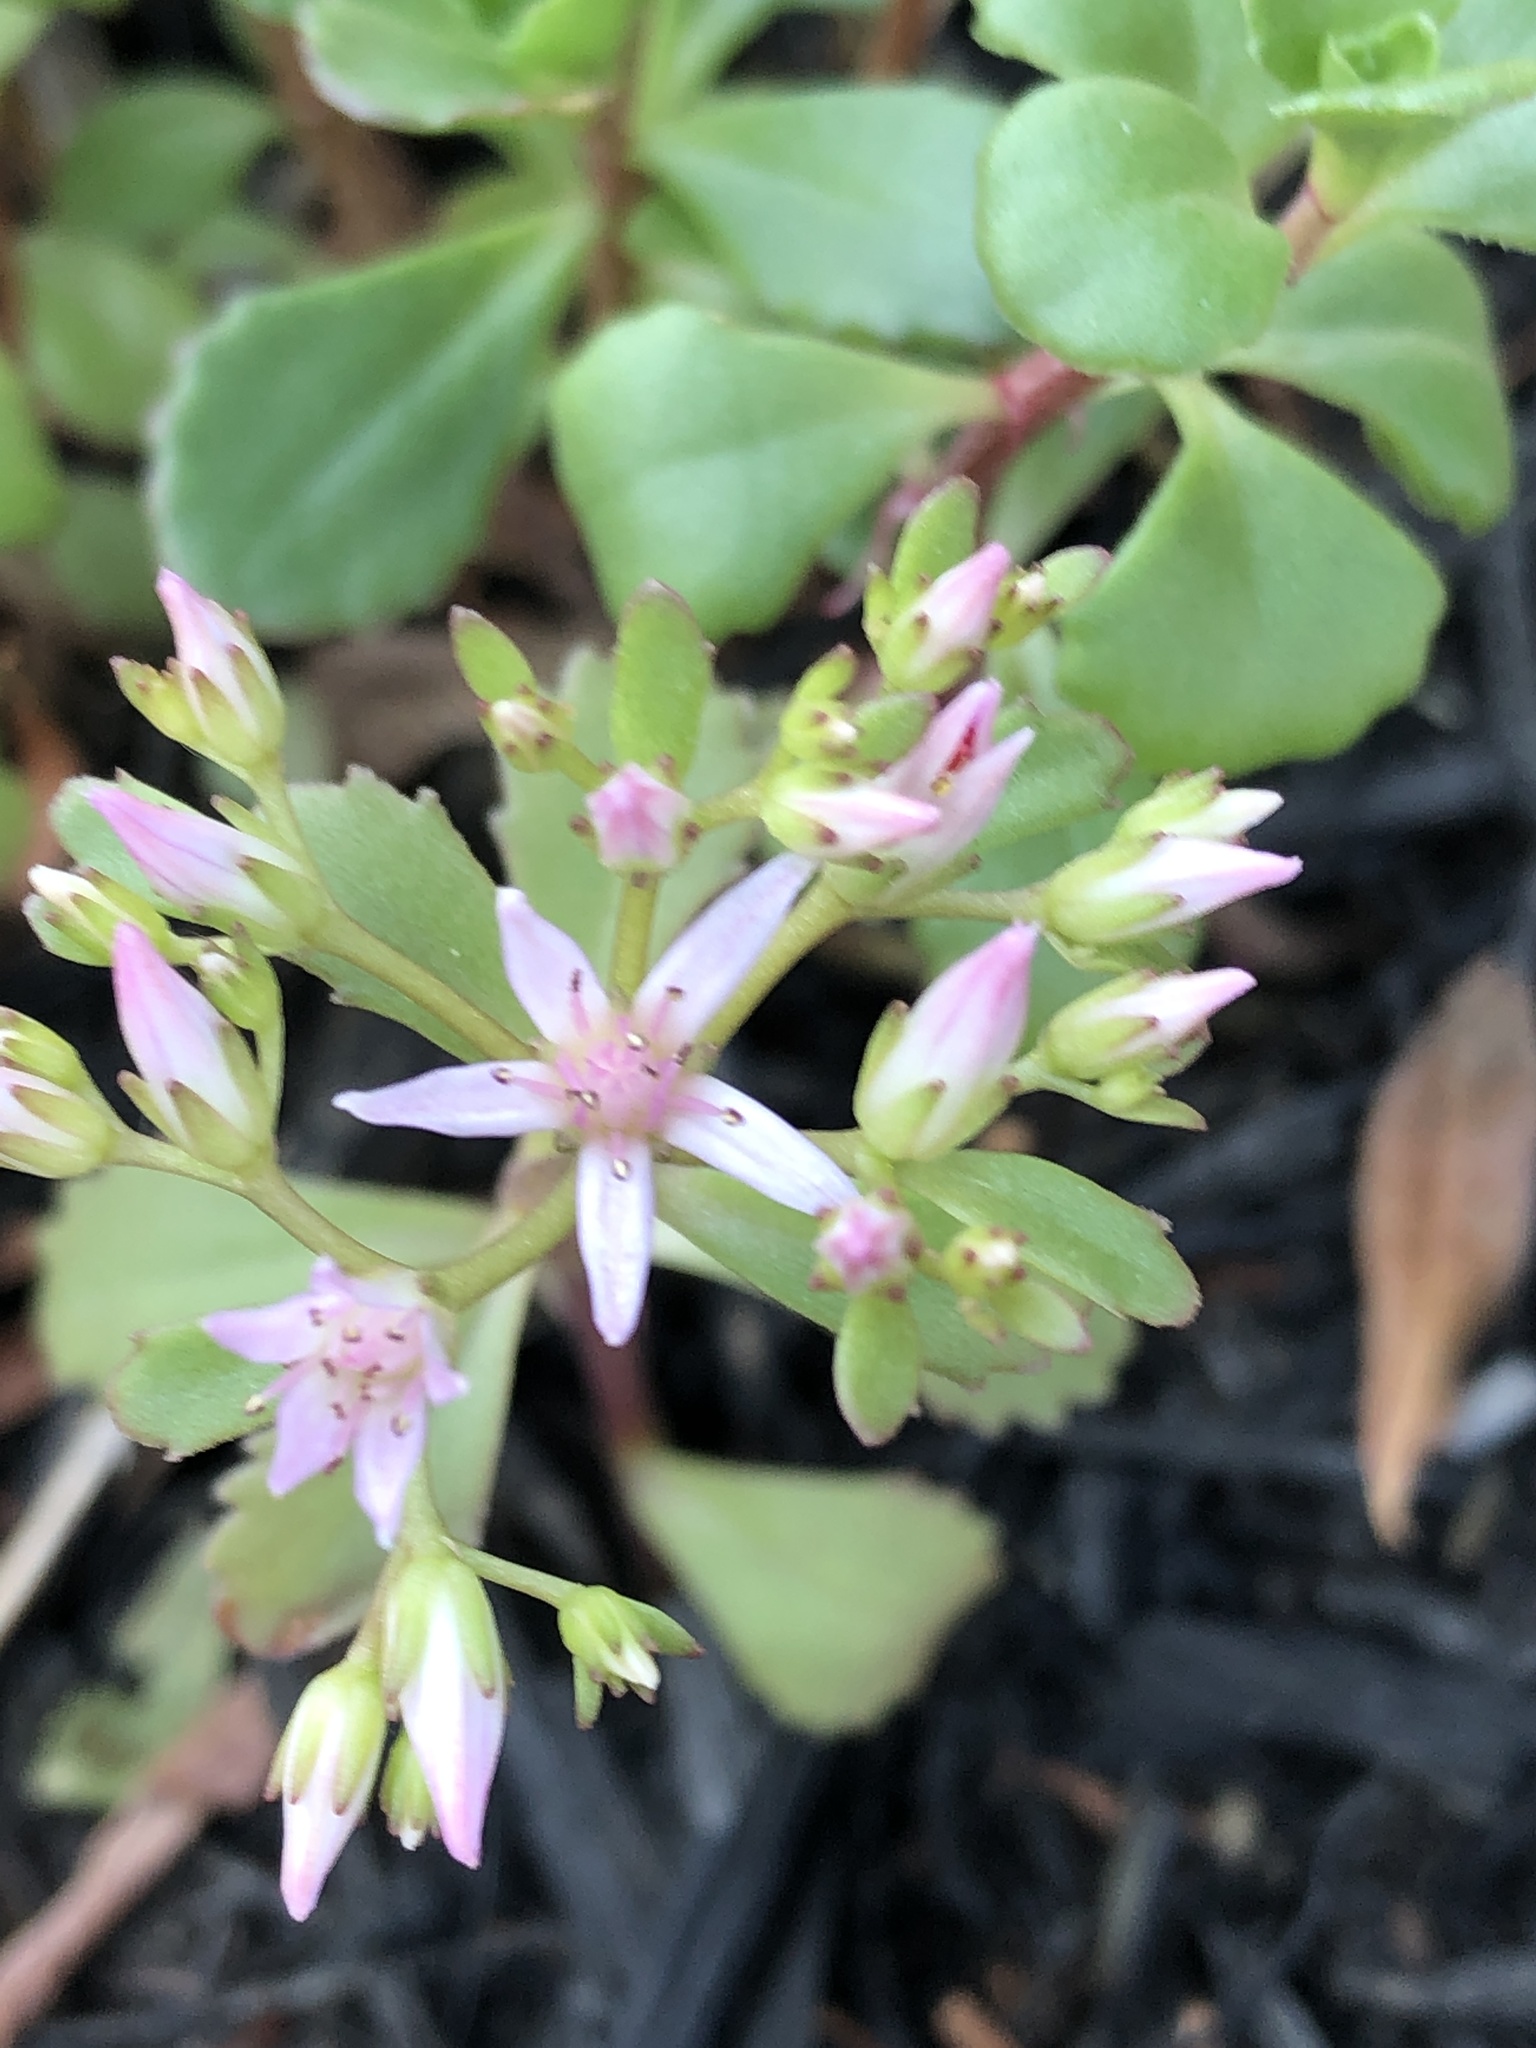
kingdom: Plantae
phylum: Tracheophyta
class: Magnoliopsida
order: Saxifragales
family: Crassulaceae
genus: Phedimus
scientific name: Phedimus spurius
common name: Caucasian stonecrop
